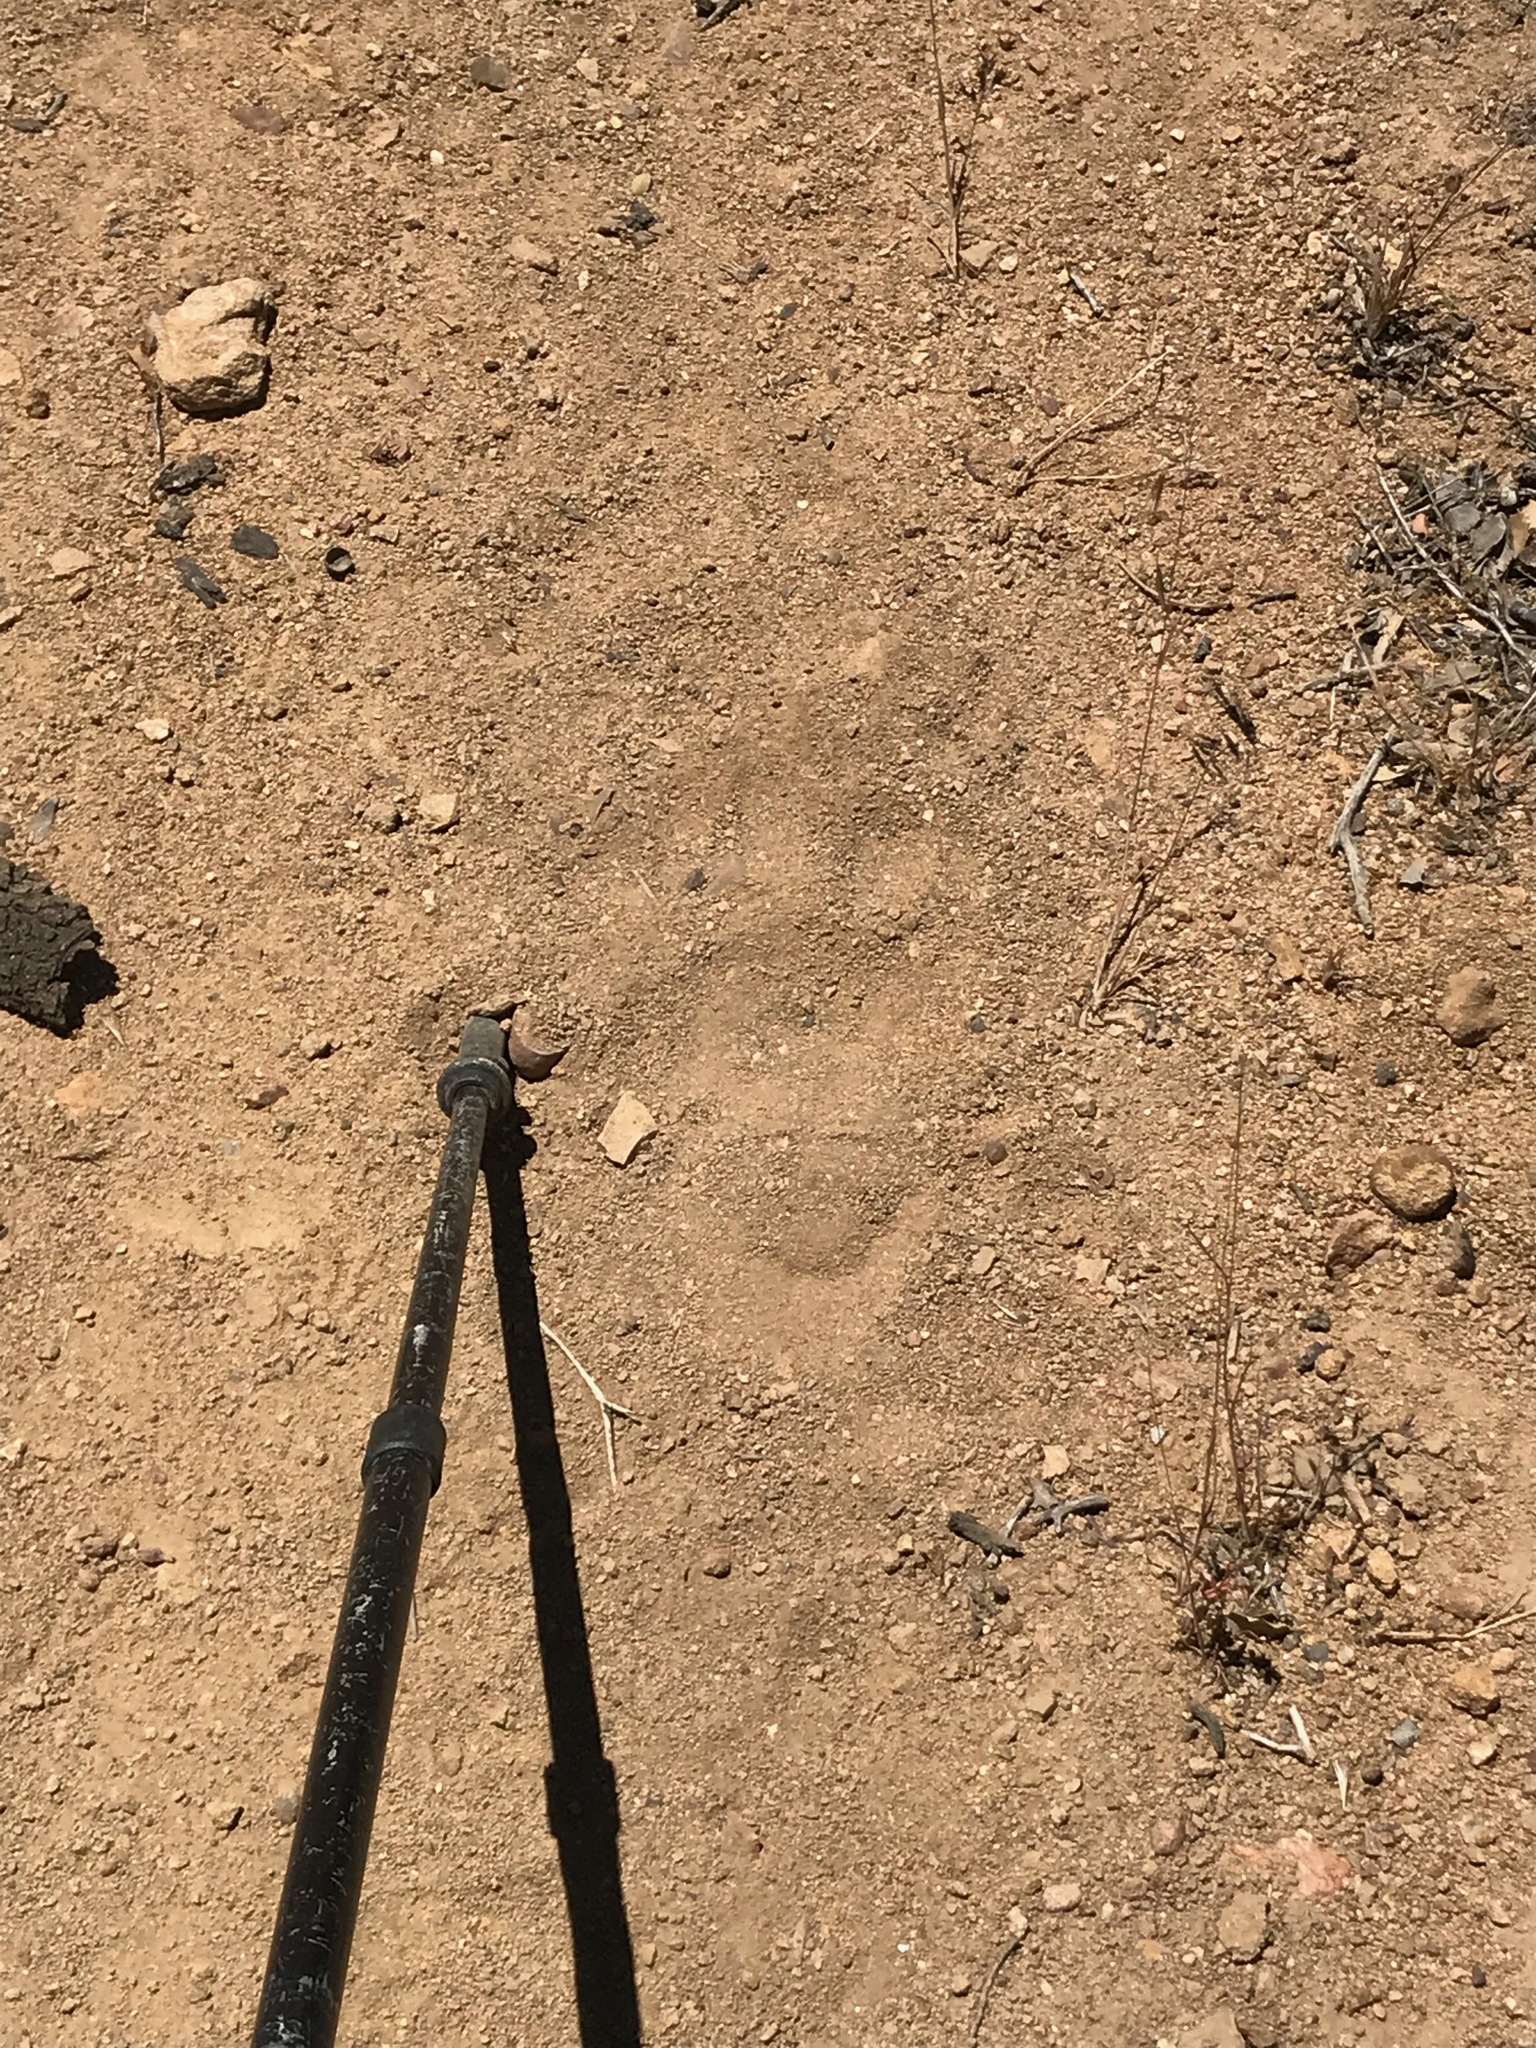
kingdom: Animalia
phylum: Chordata
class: Mammalia
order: Carnivora
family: Ursidae
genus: Ursus
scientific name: Ursus americanus
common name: American black bear
